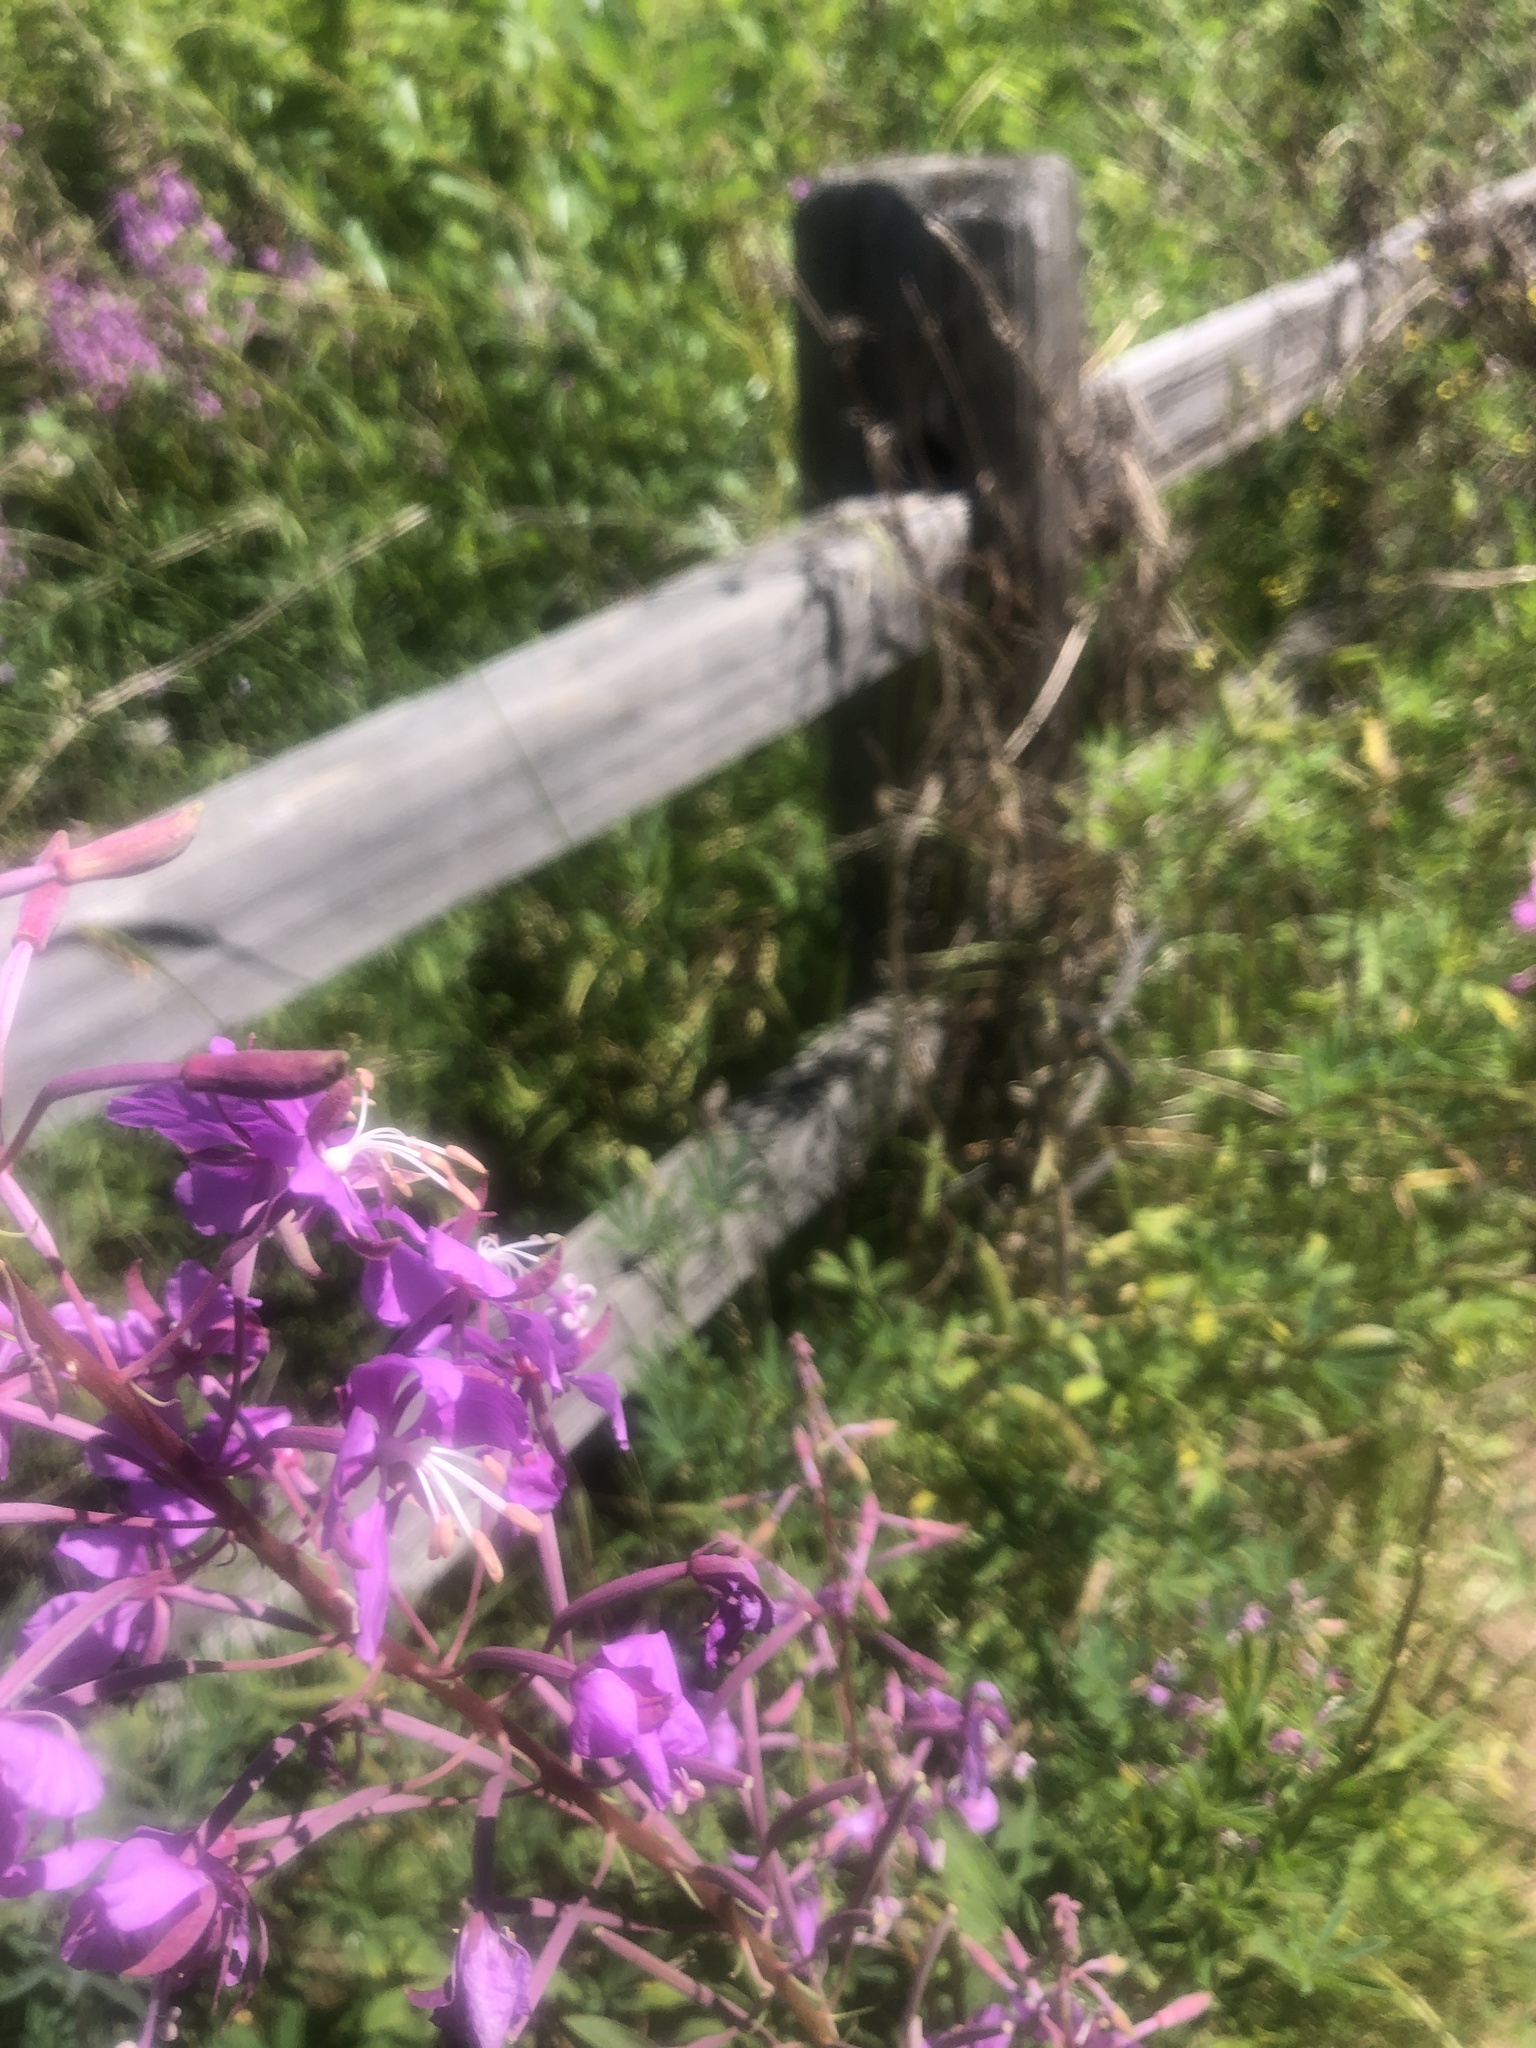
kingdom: Plantae
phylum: Tracheophyta
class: Magnoliopsida
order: Myrtales
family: Onagraceae
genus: Chamaenerion
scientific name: Chamaenerion angustifolium
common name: Fireweed
